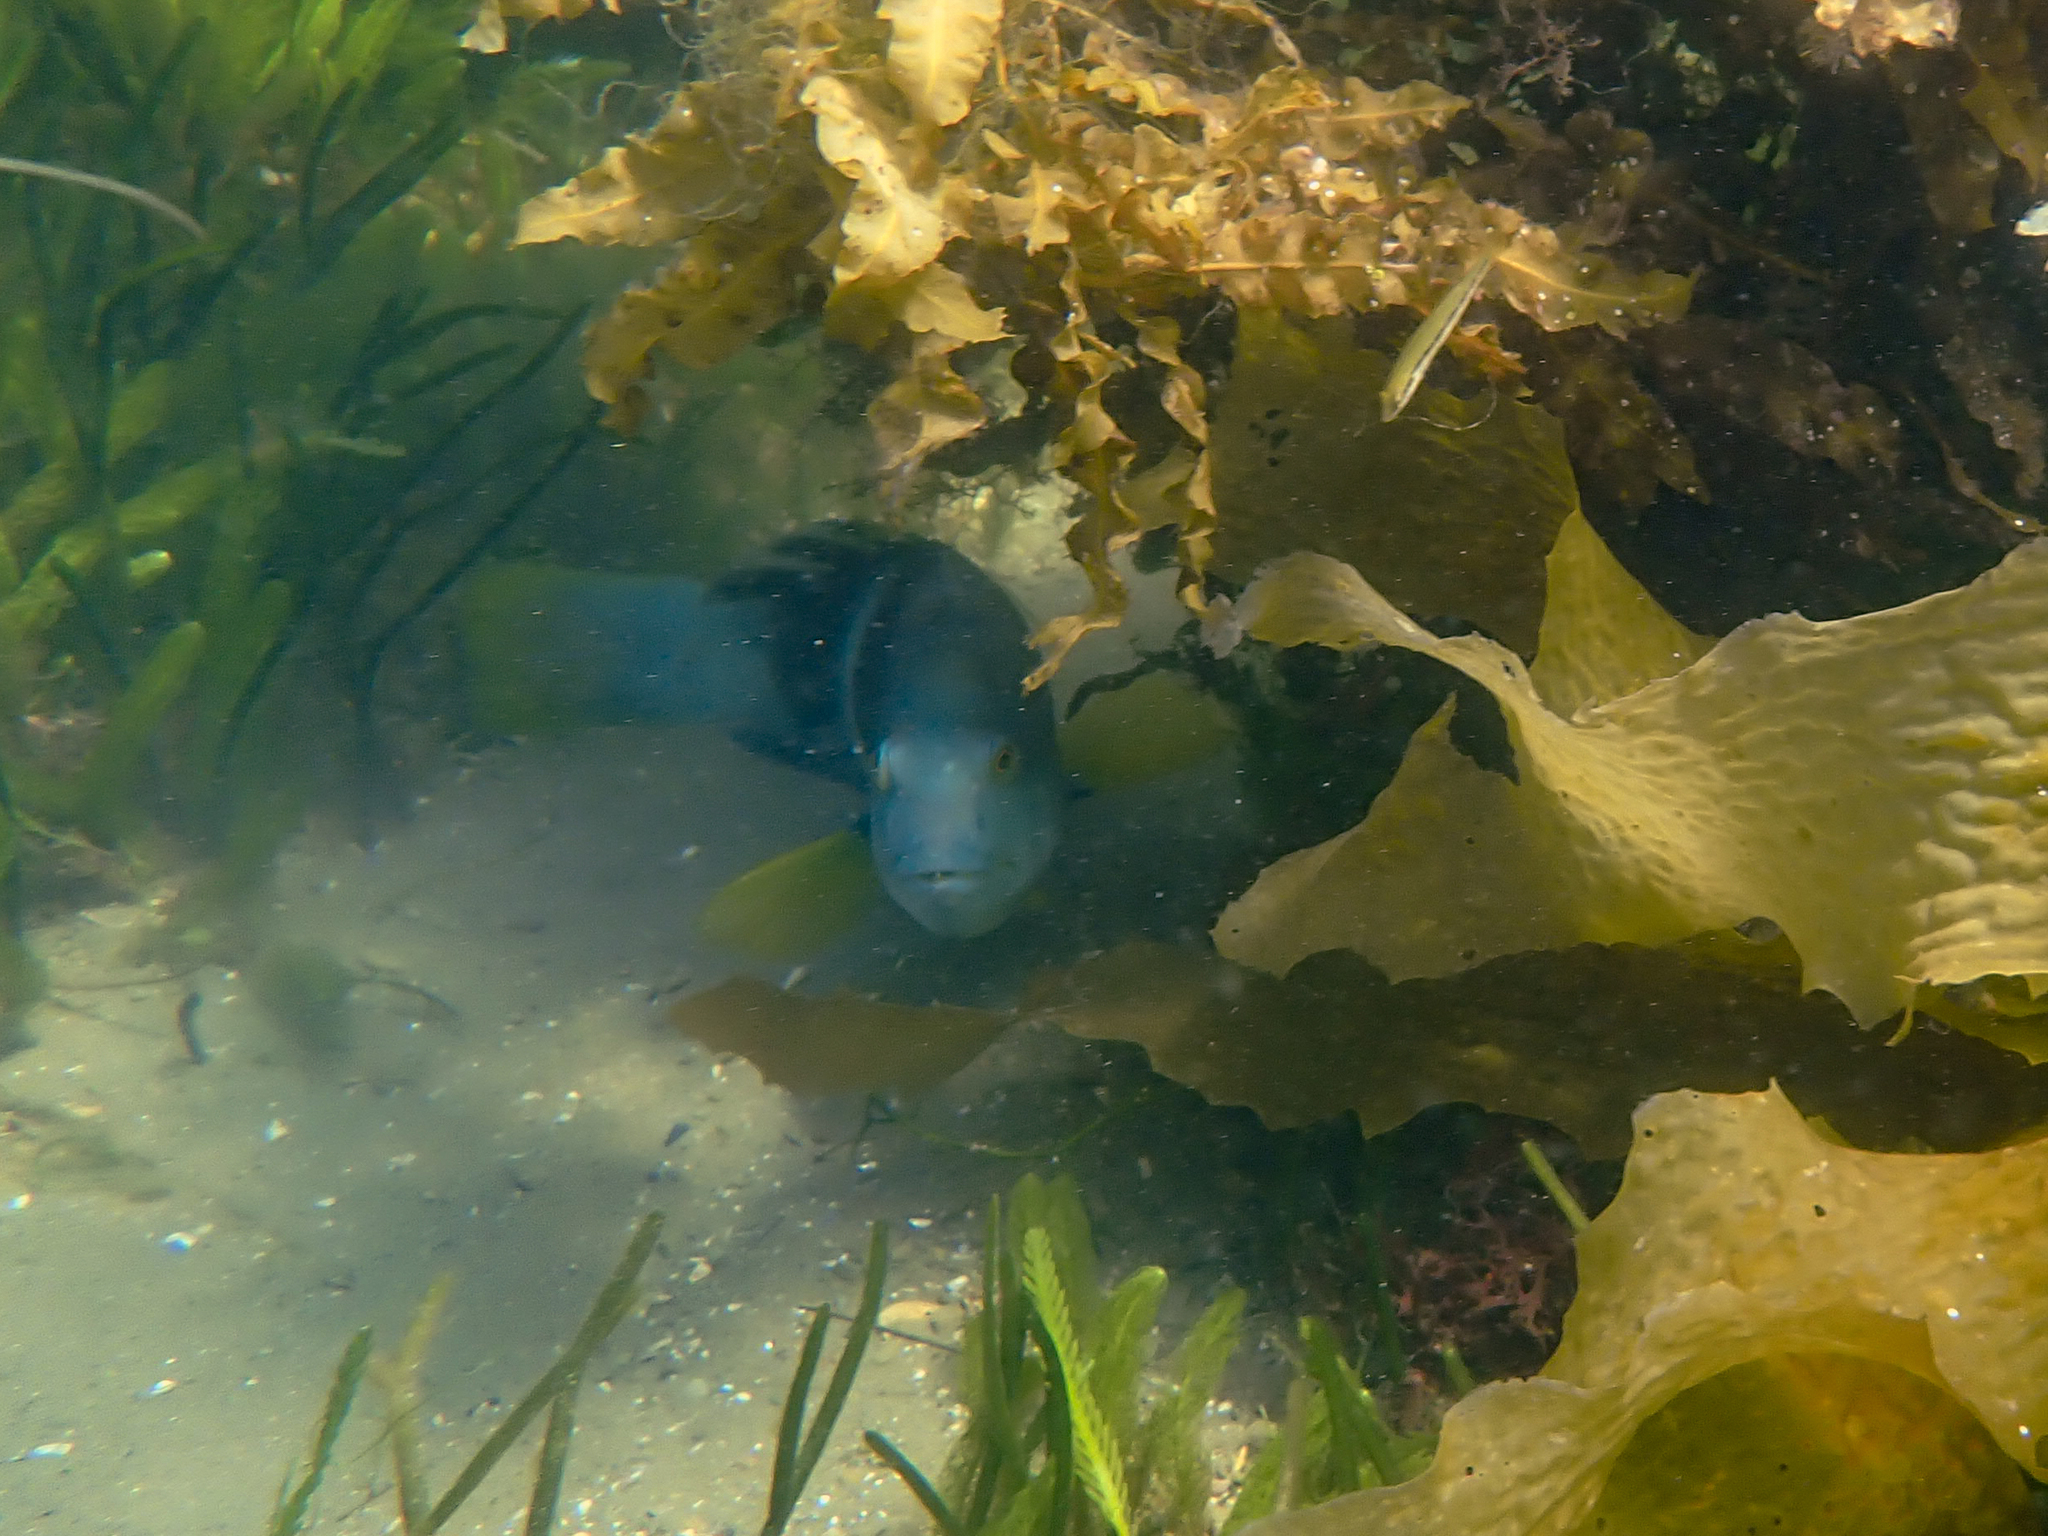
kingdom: Animalia
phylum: Chordata
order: Perciformes
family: Labridae
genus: Notolabrus
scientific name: Notolabrus tetricus
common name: Blue-throated parrotfish
